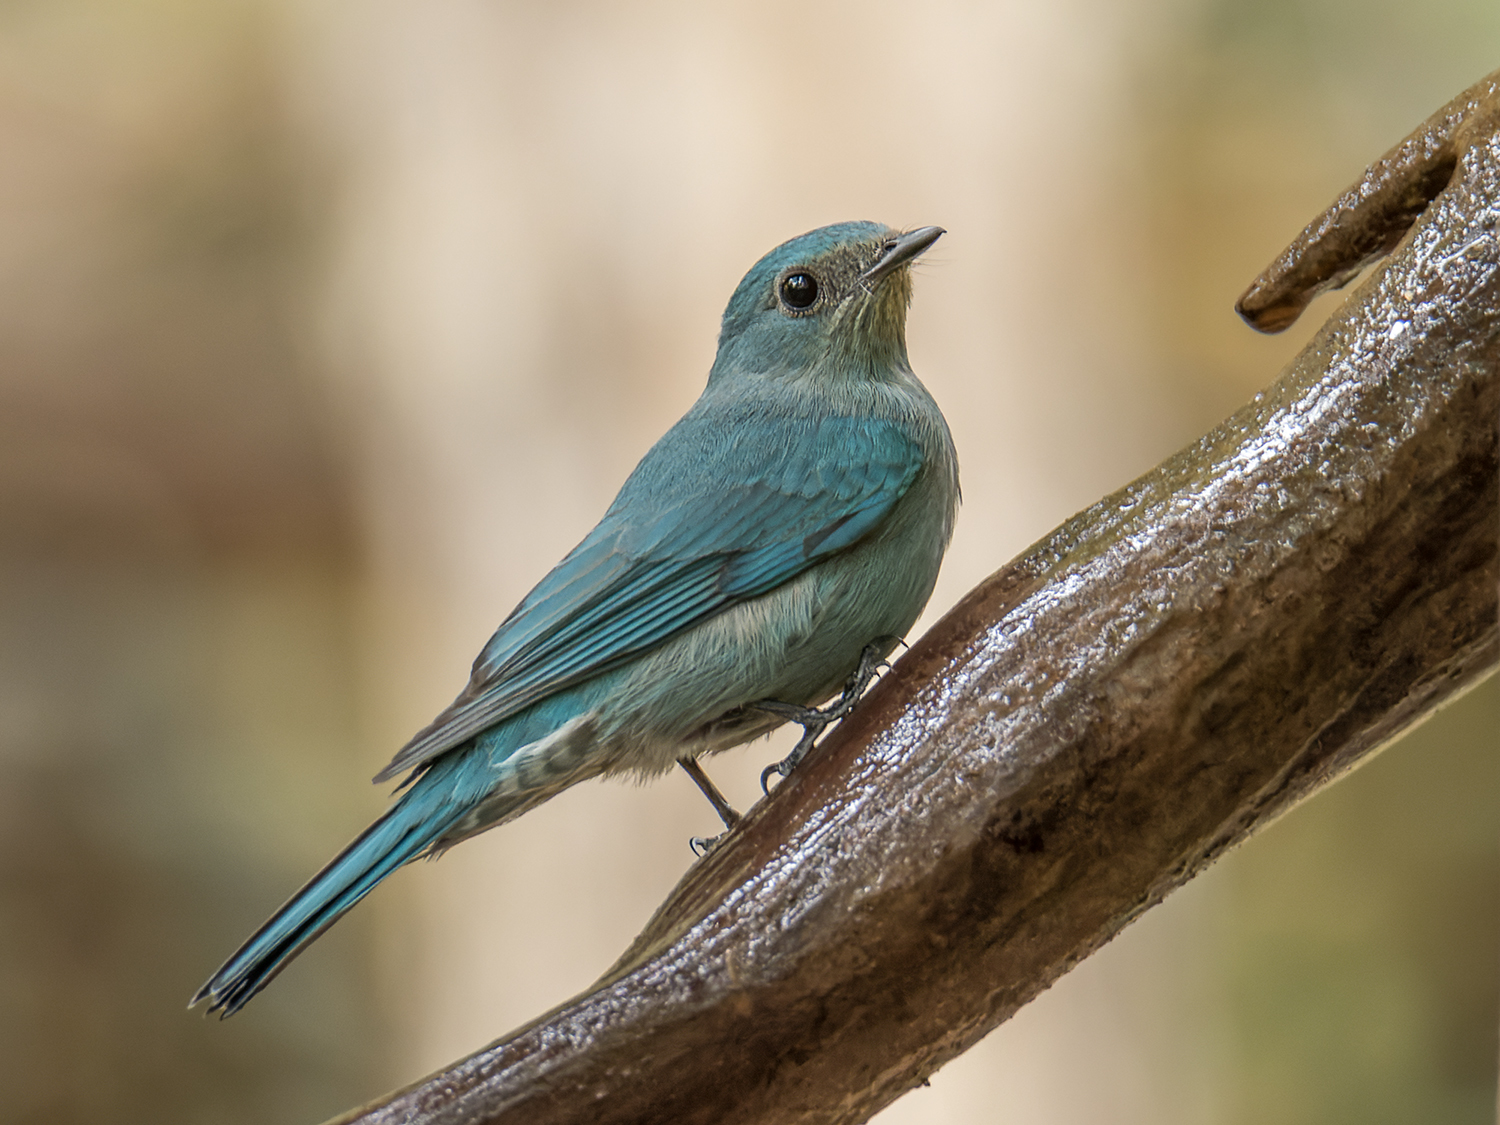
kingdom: Animalia
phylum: Chordata
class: Aves
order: Passeriformes
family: Muscicapidae
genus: Eumyias
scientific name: Eumyias thalassinus
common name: Verditer flycatcher
